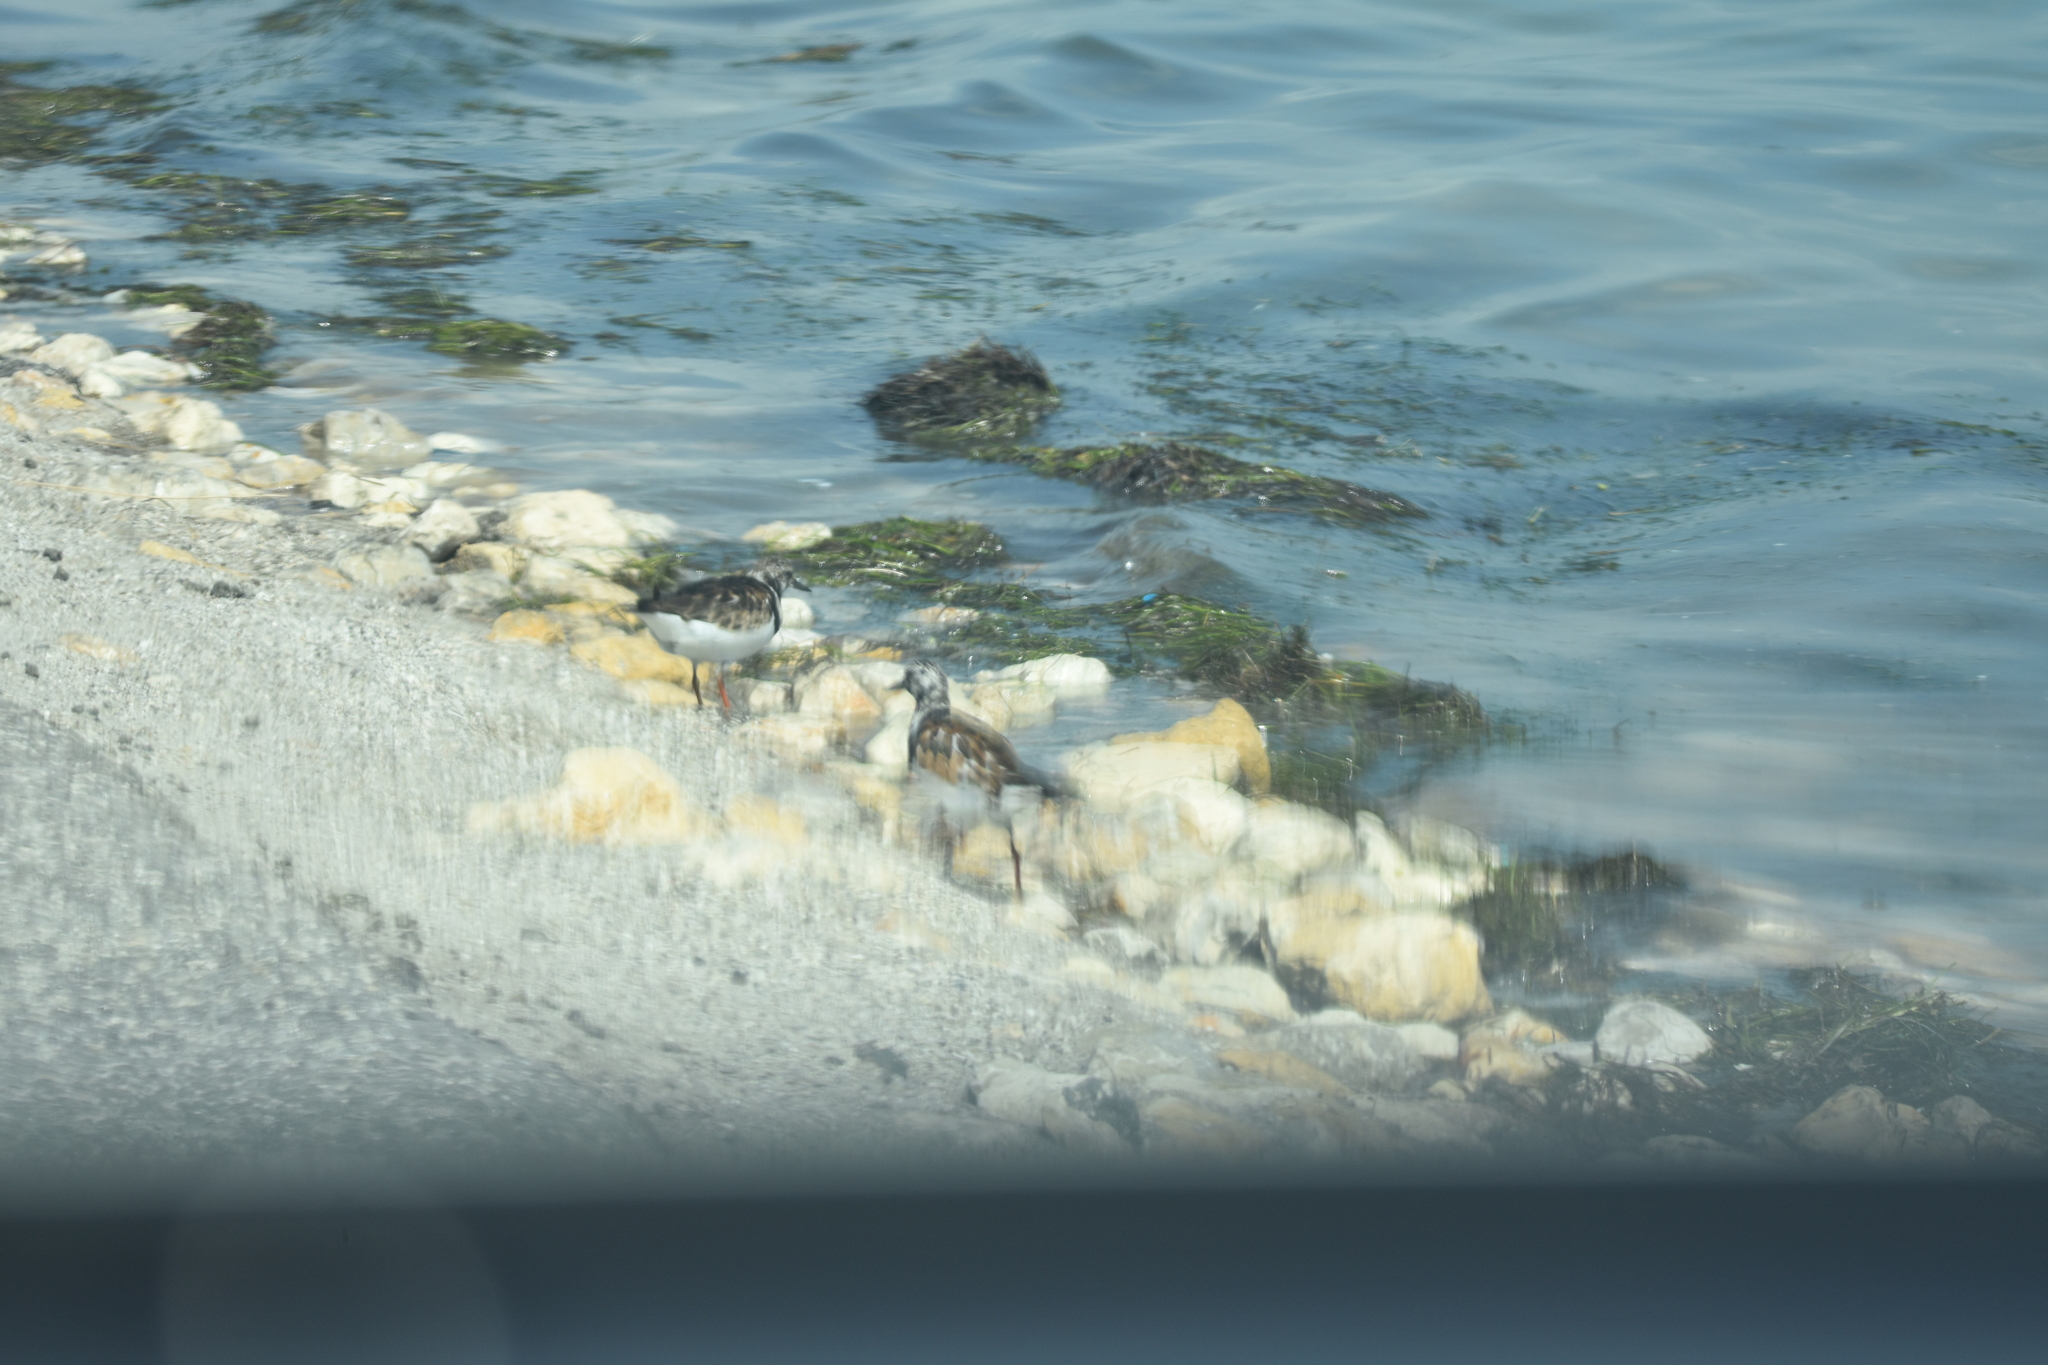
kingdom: Animalia
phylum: Chordata
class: Aves
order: Charadriiformes
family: Scolopacidae
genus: Arenaria
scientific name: Arenaria interpres
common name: Ruddy turnstone
